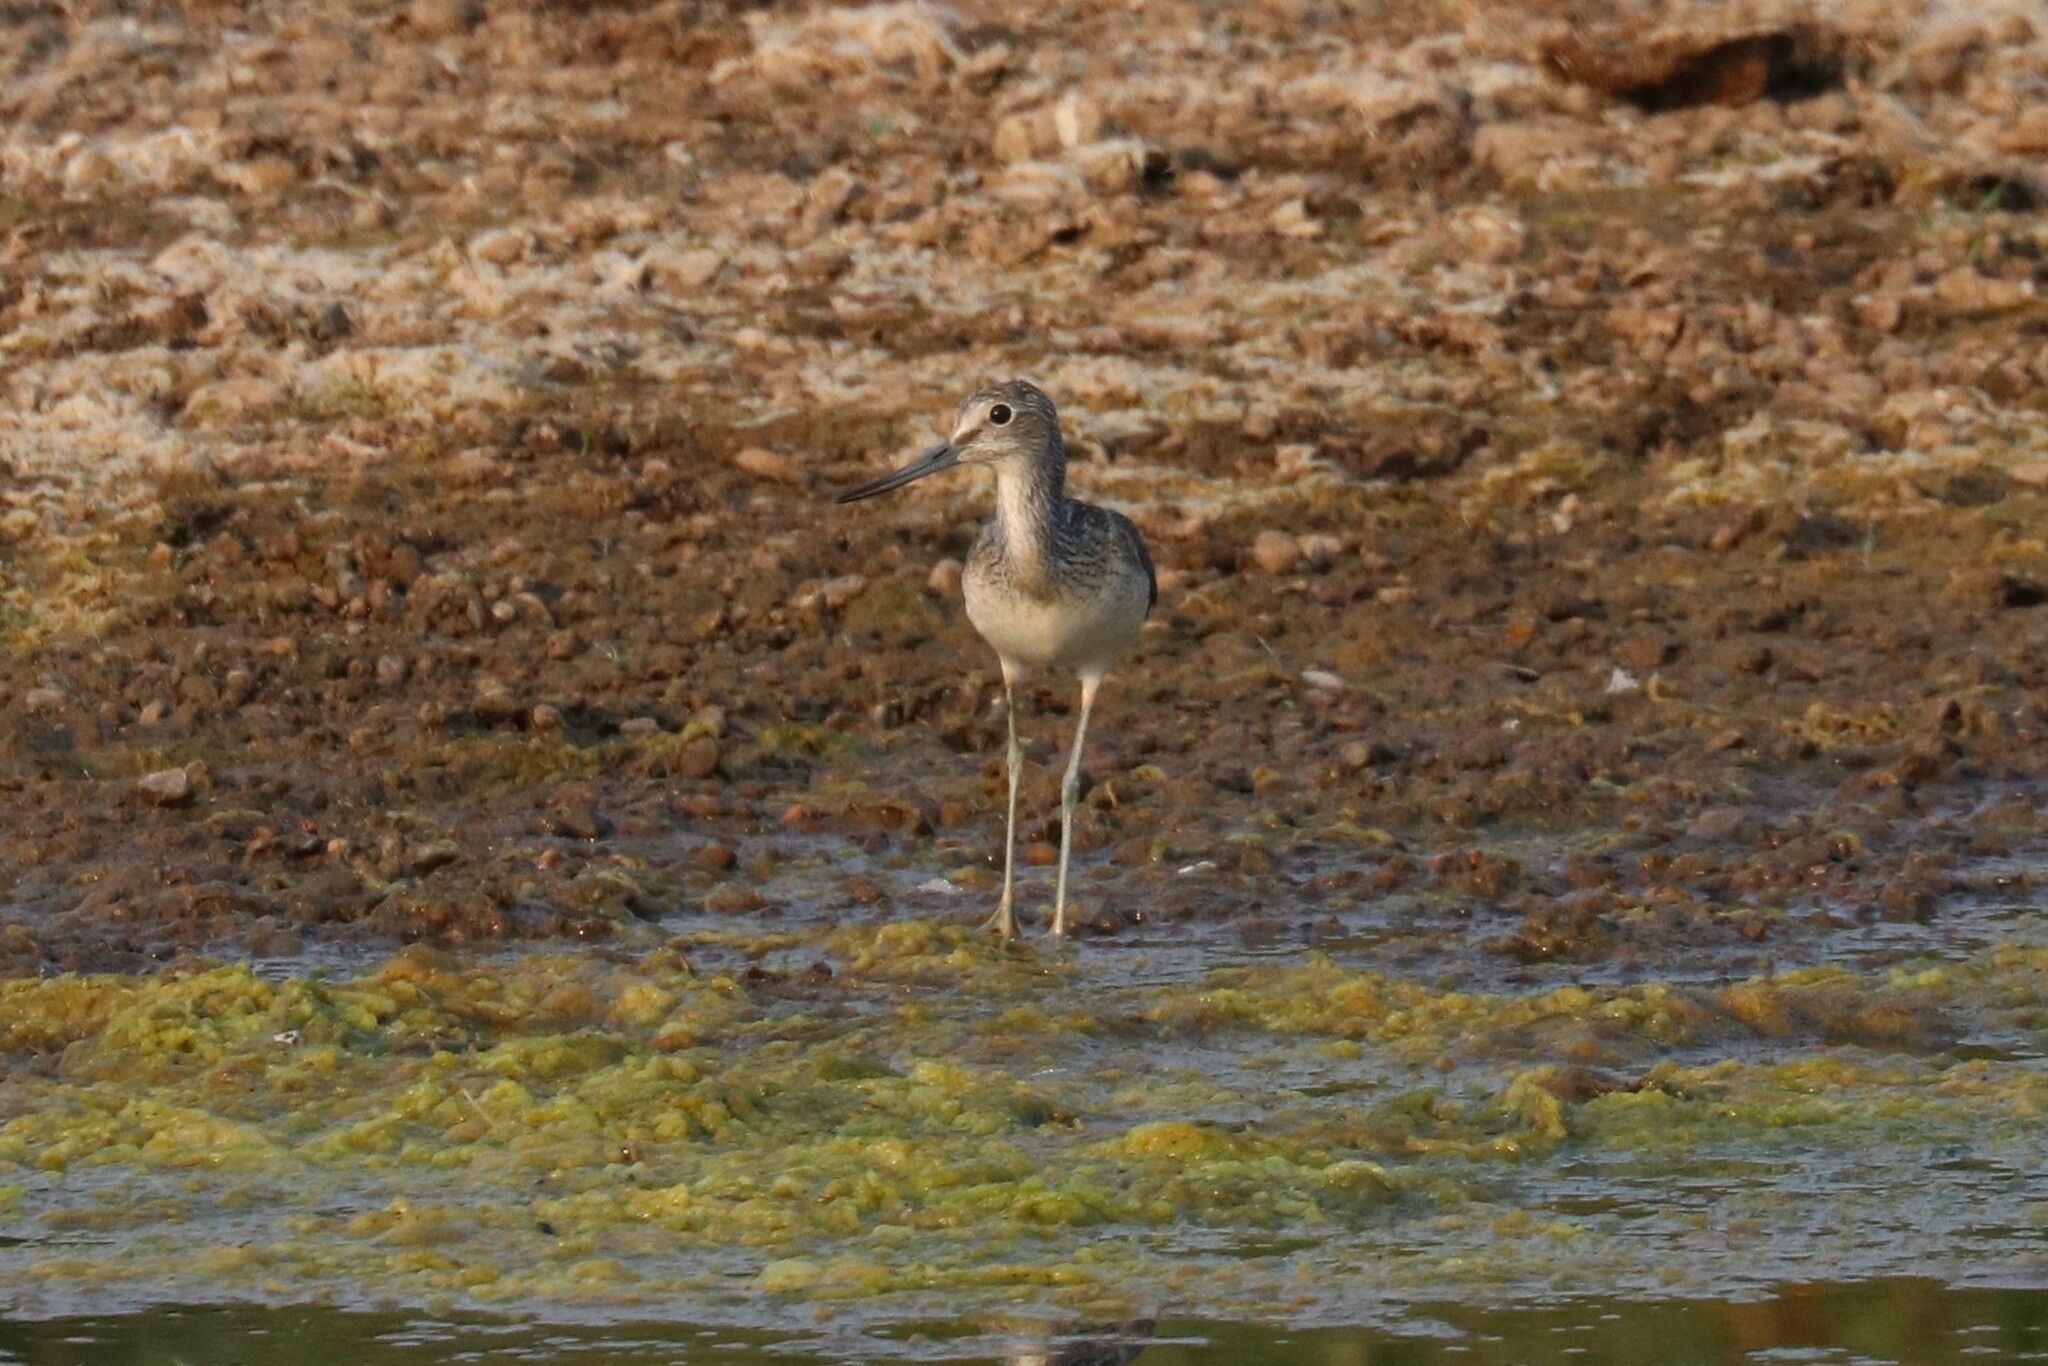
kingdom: Animalia
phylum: Chordata
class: Aves
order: Charadriiformes
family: Scolopacidae
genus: Tringa
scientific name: Tringa nebularia
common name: Common greenshank
